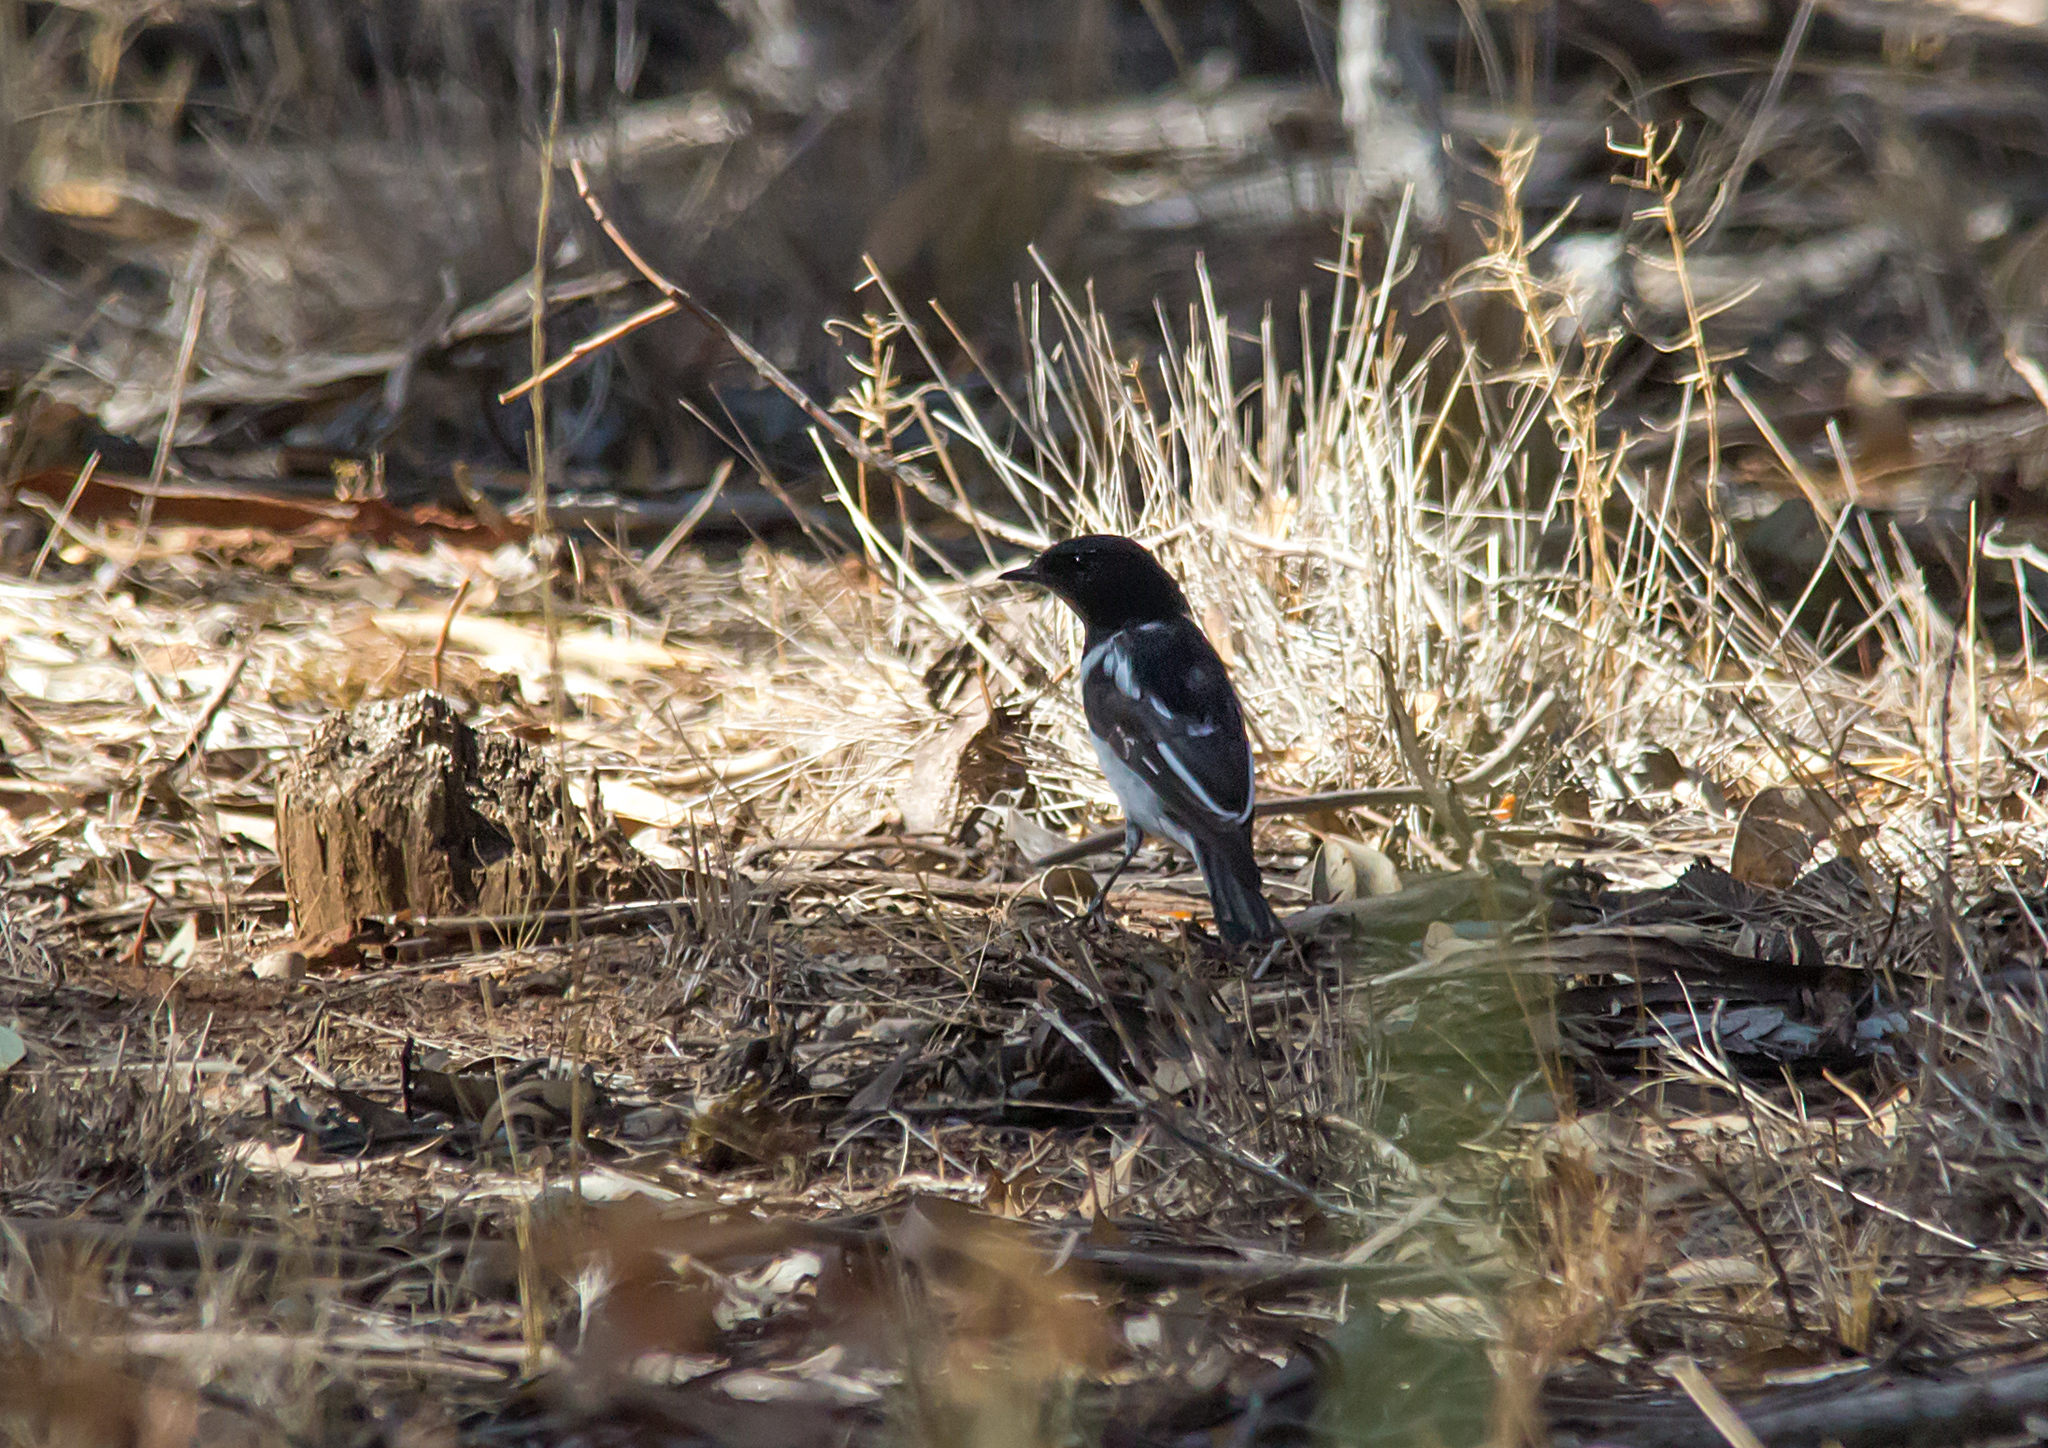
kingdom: Animalia
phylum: Chordata
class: Aves
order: Passeriformes
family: Petroicidae
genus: Melanodryas
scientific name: Melanodryas cucullata
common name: Hooded robin
